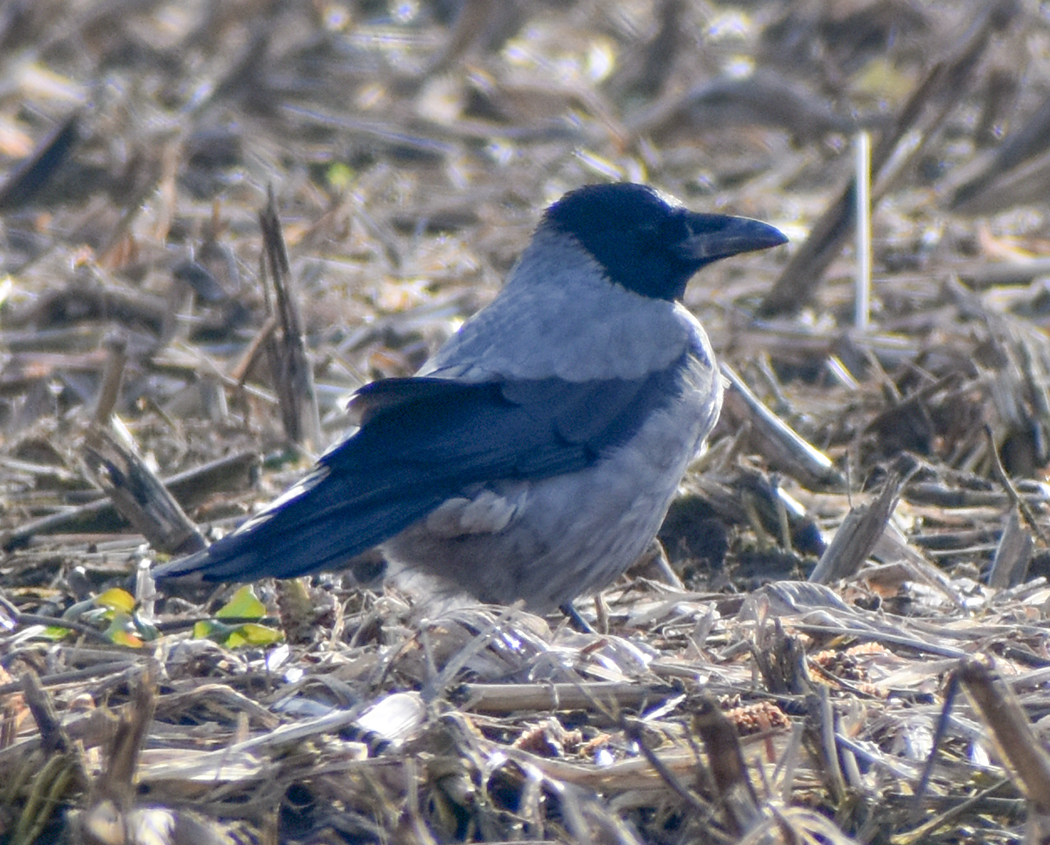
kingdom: Animalia
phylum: Chordata
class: Aves
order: Passeriformes
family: Corvidae
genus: Corvus
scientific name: Corvus cornix
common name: Hooded crow
